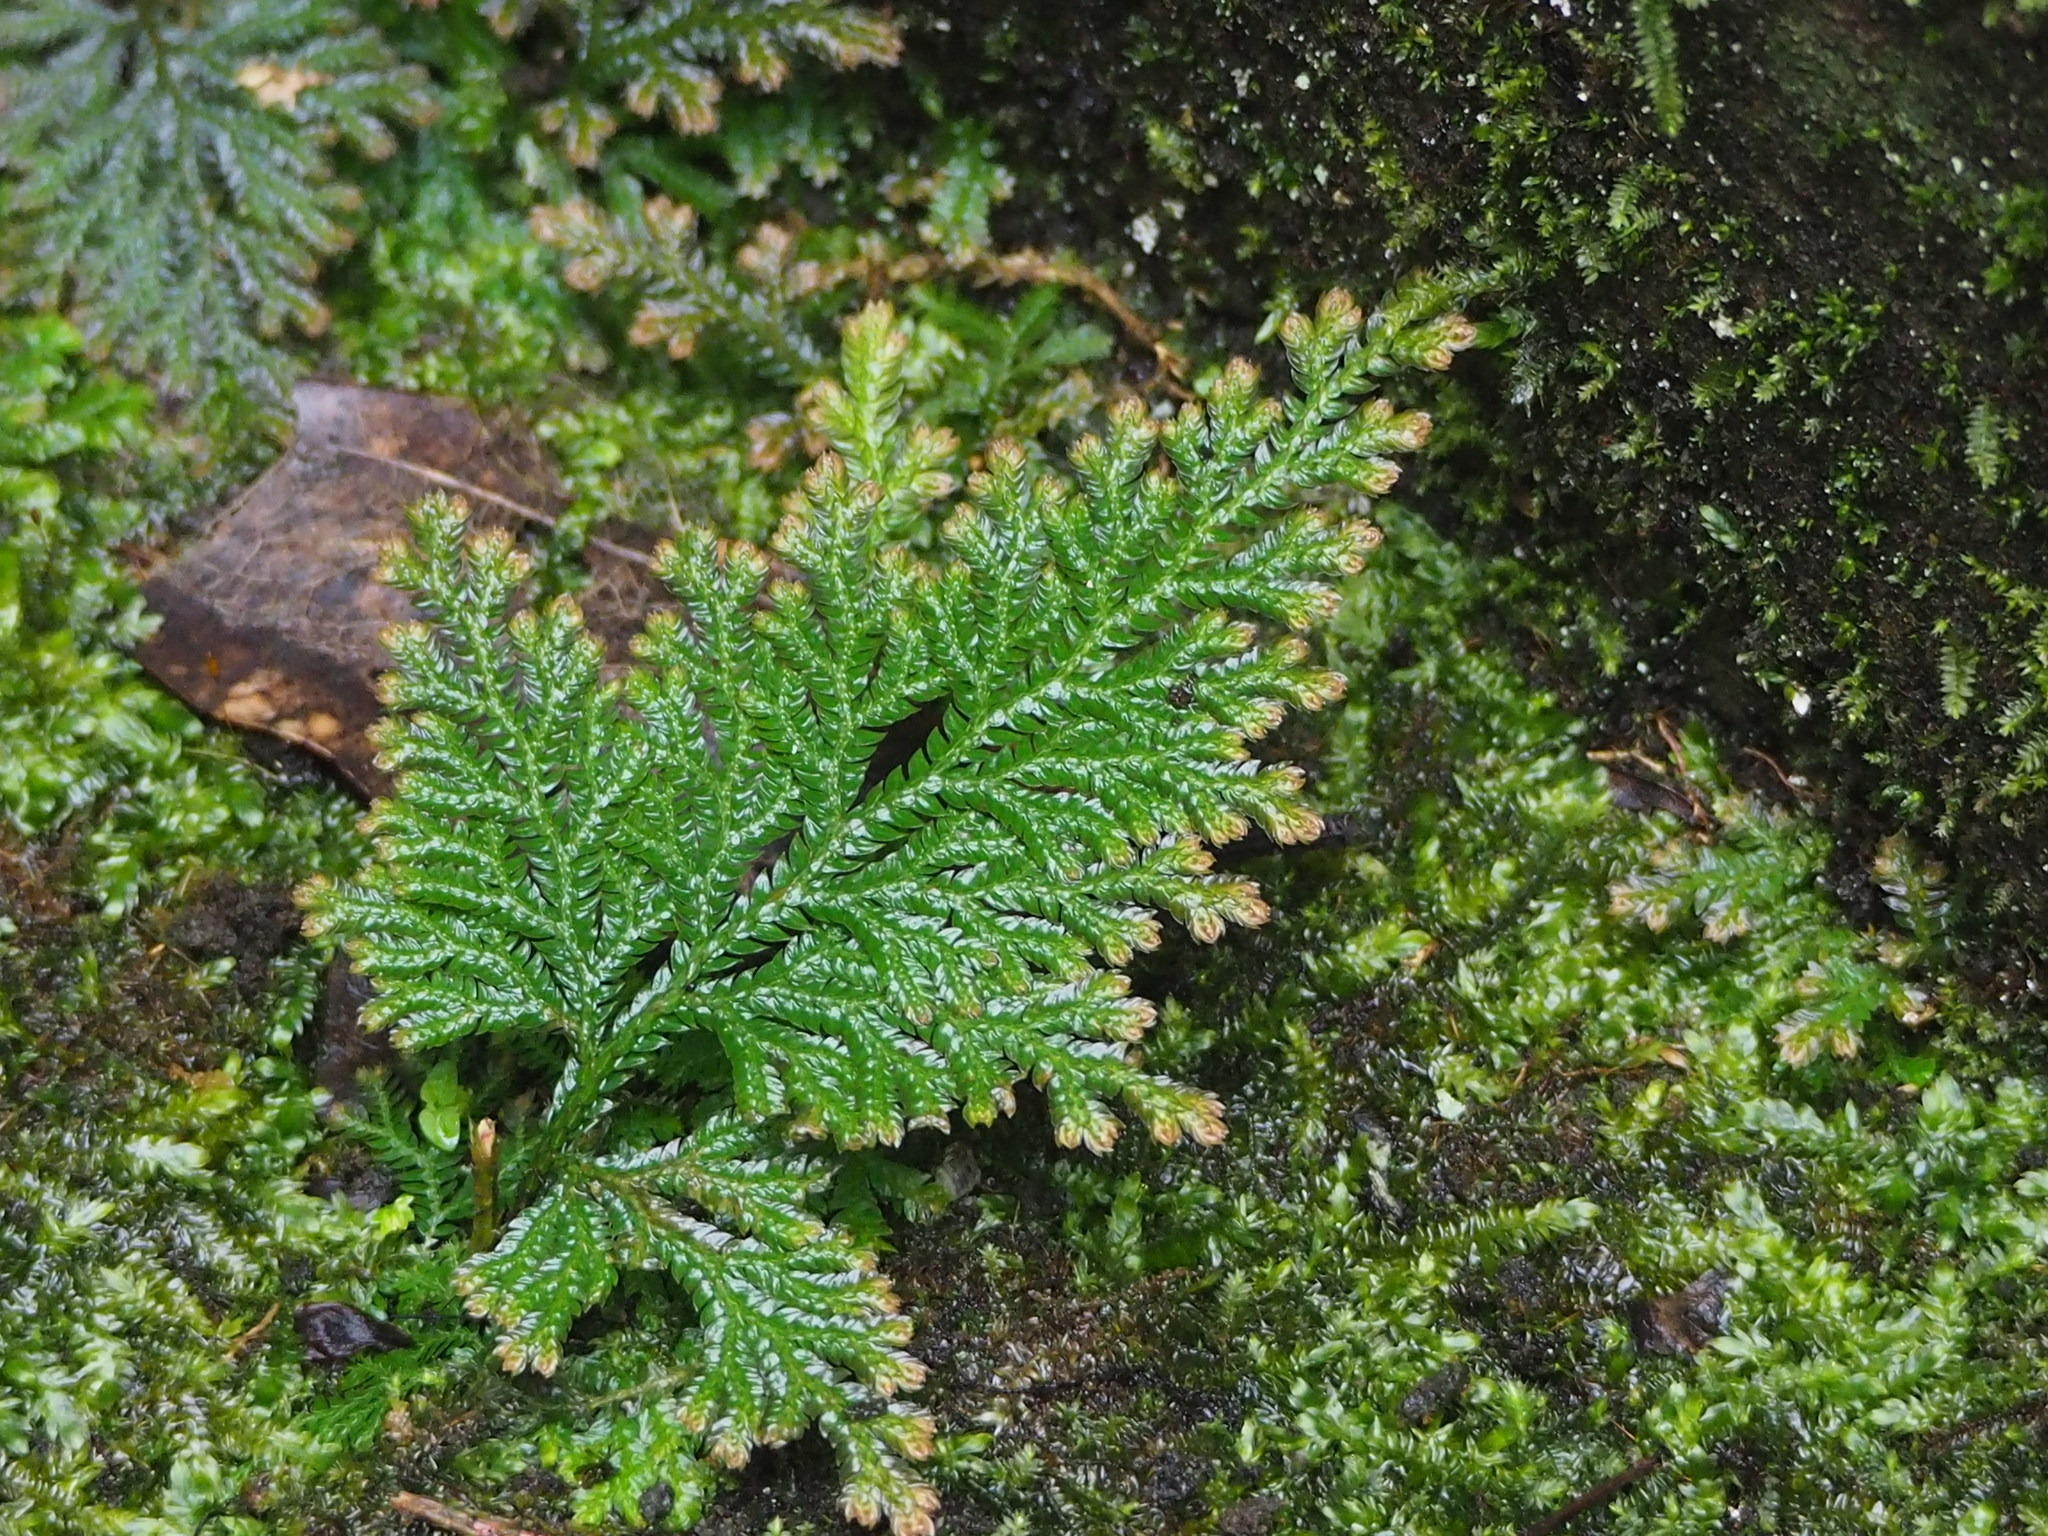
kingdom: Plantae
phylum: Tracheophyta
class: Lycopodiopsida
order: Selaginellales
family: Selaginellaceae
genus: Selaginella
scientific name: Selaginella moellendorffii
